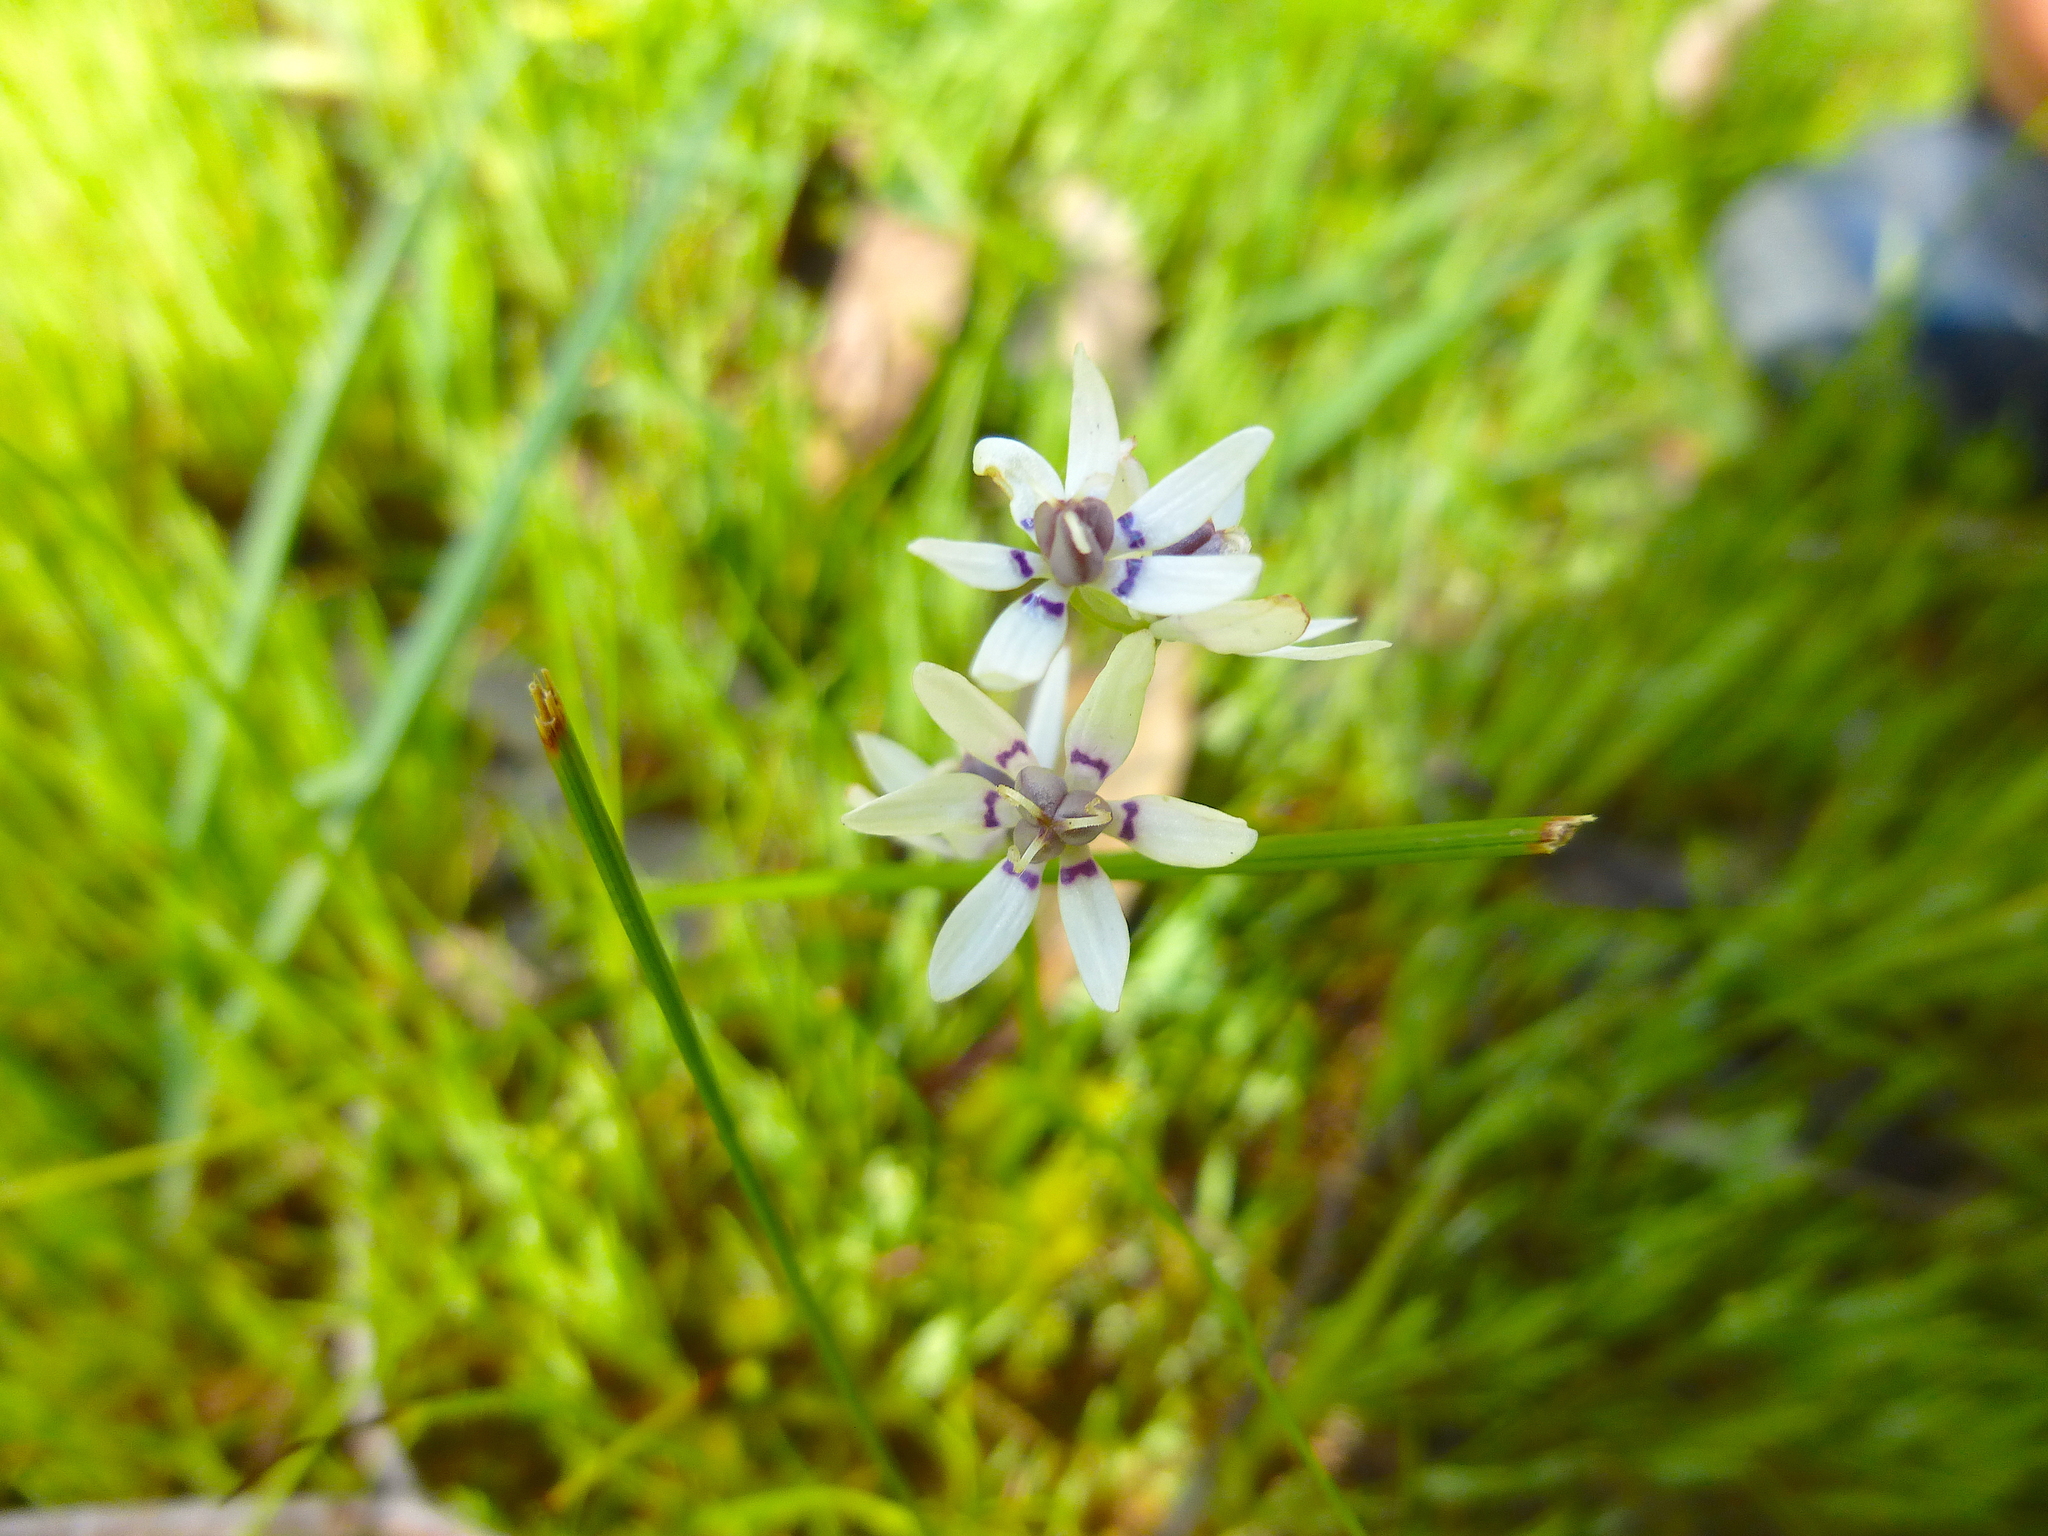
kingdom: Plantae
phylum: Tracheophyta
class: Liliopsida
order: Liliales
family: Colchicaceae
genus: Wurmbea
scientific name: Wurmbea dioica
